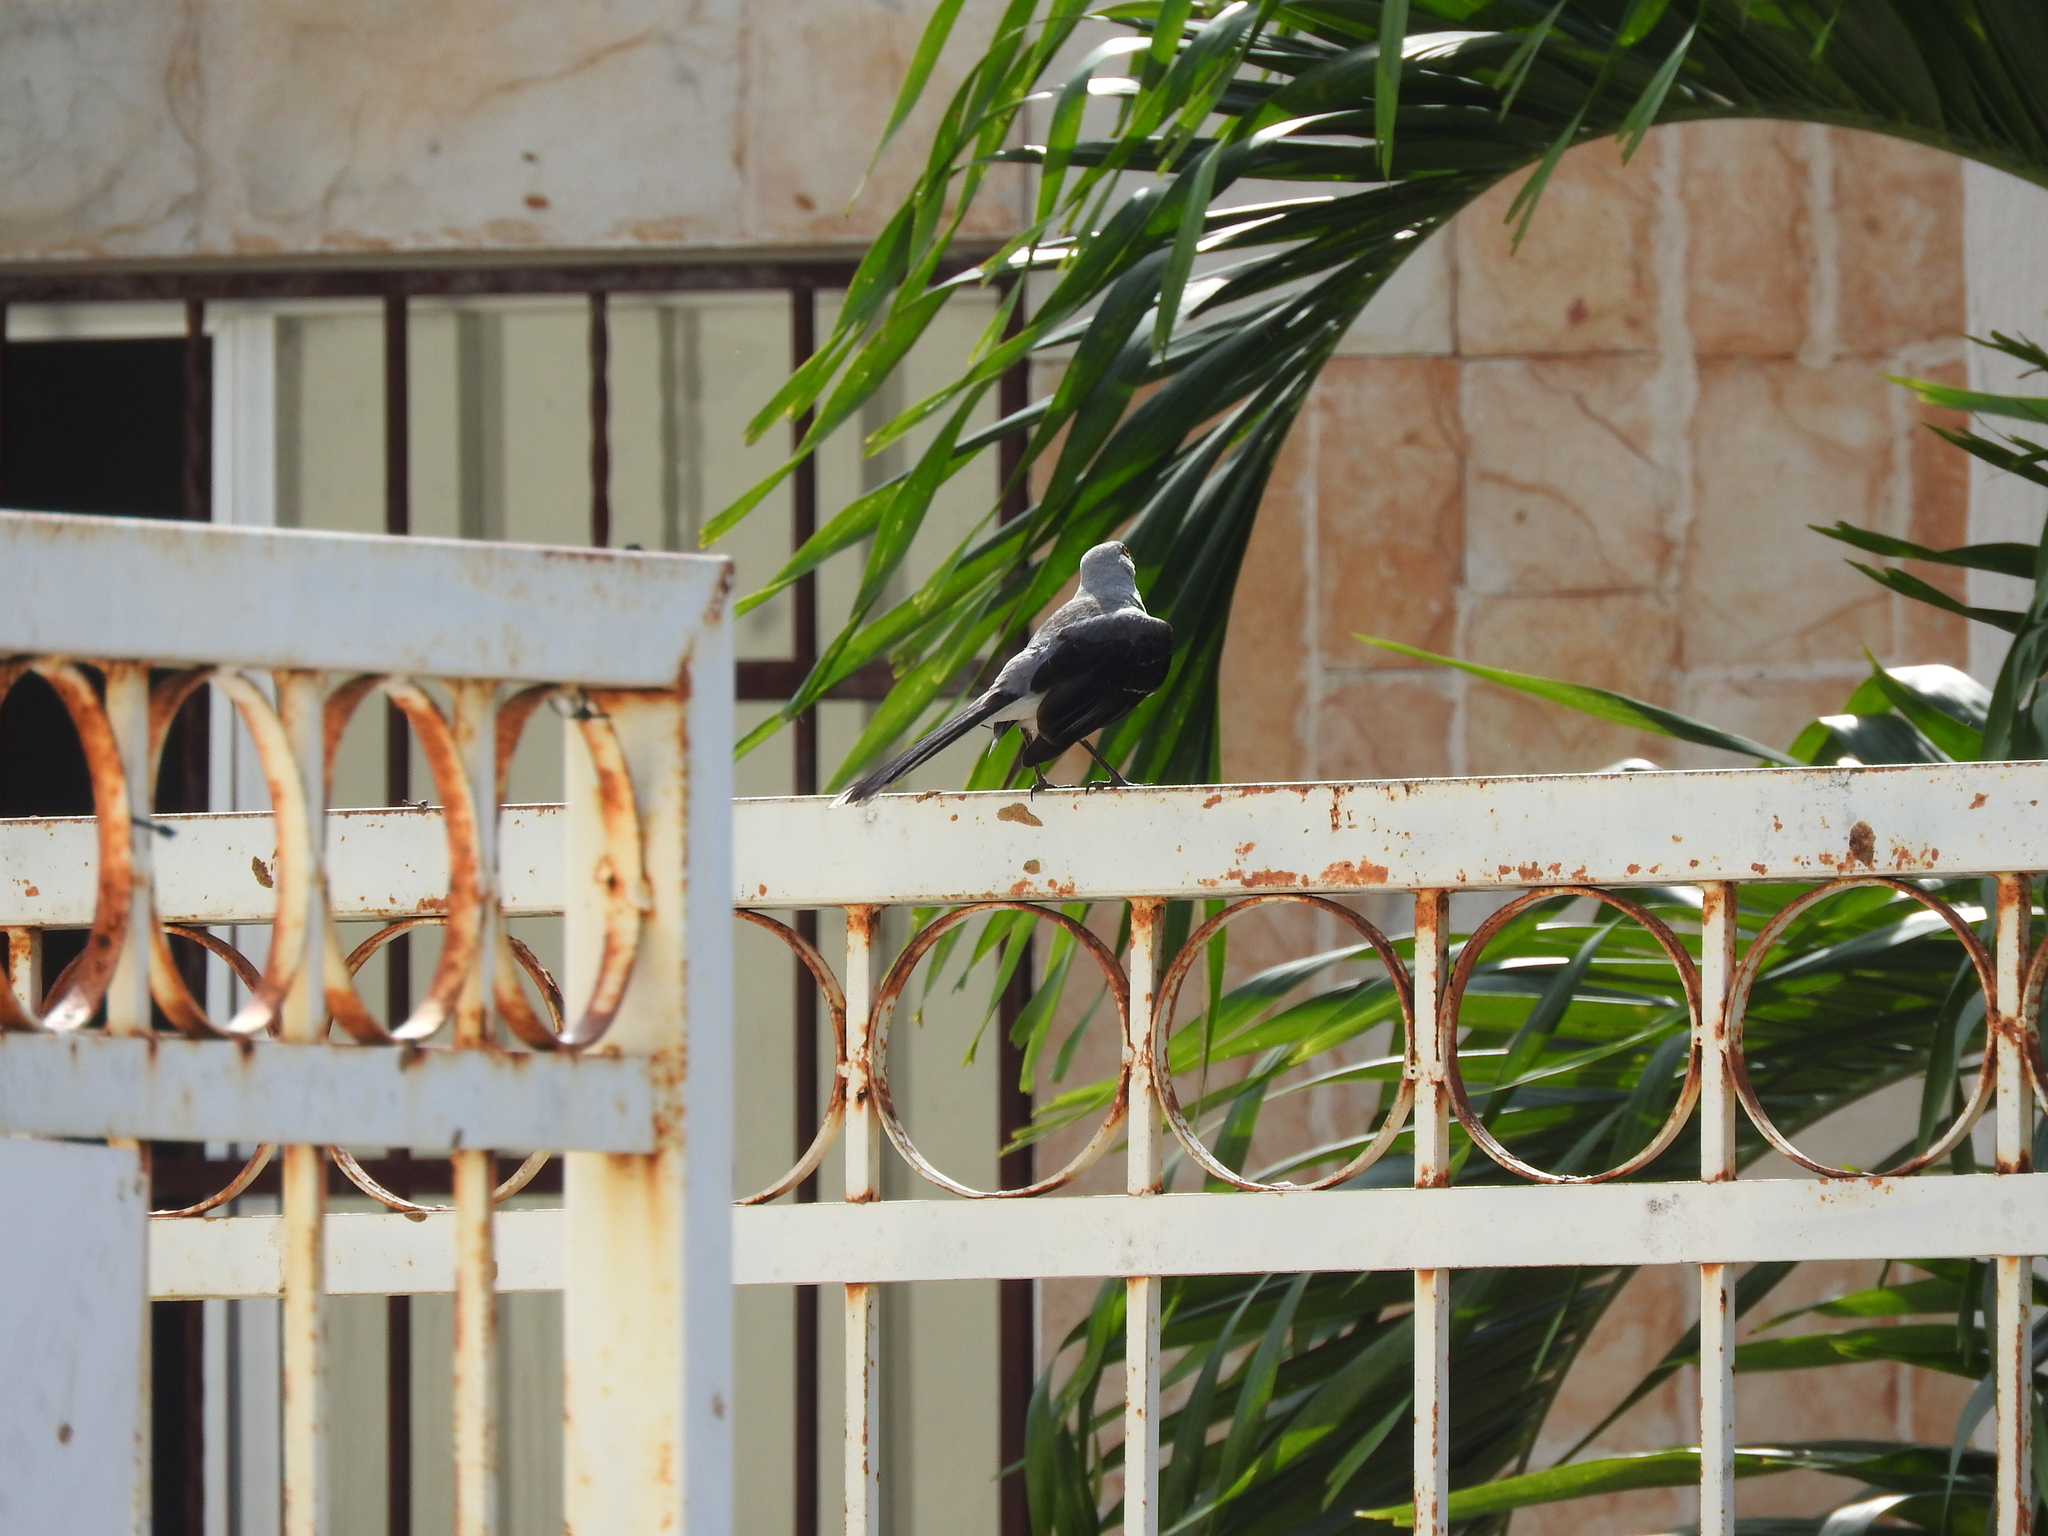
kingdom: Animalia
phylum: Chordata
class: Aves
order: Passeriformes
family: Mimidae
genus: Mimus
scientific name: Mimus gilvus
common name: Tropical mockingbird
